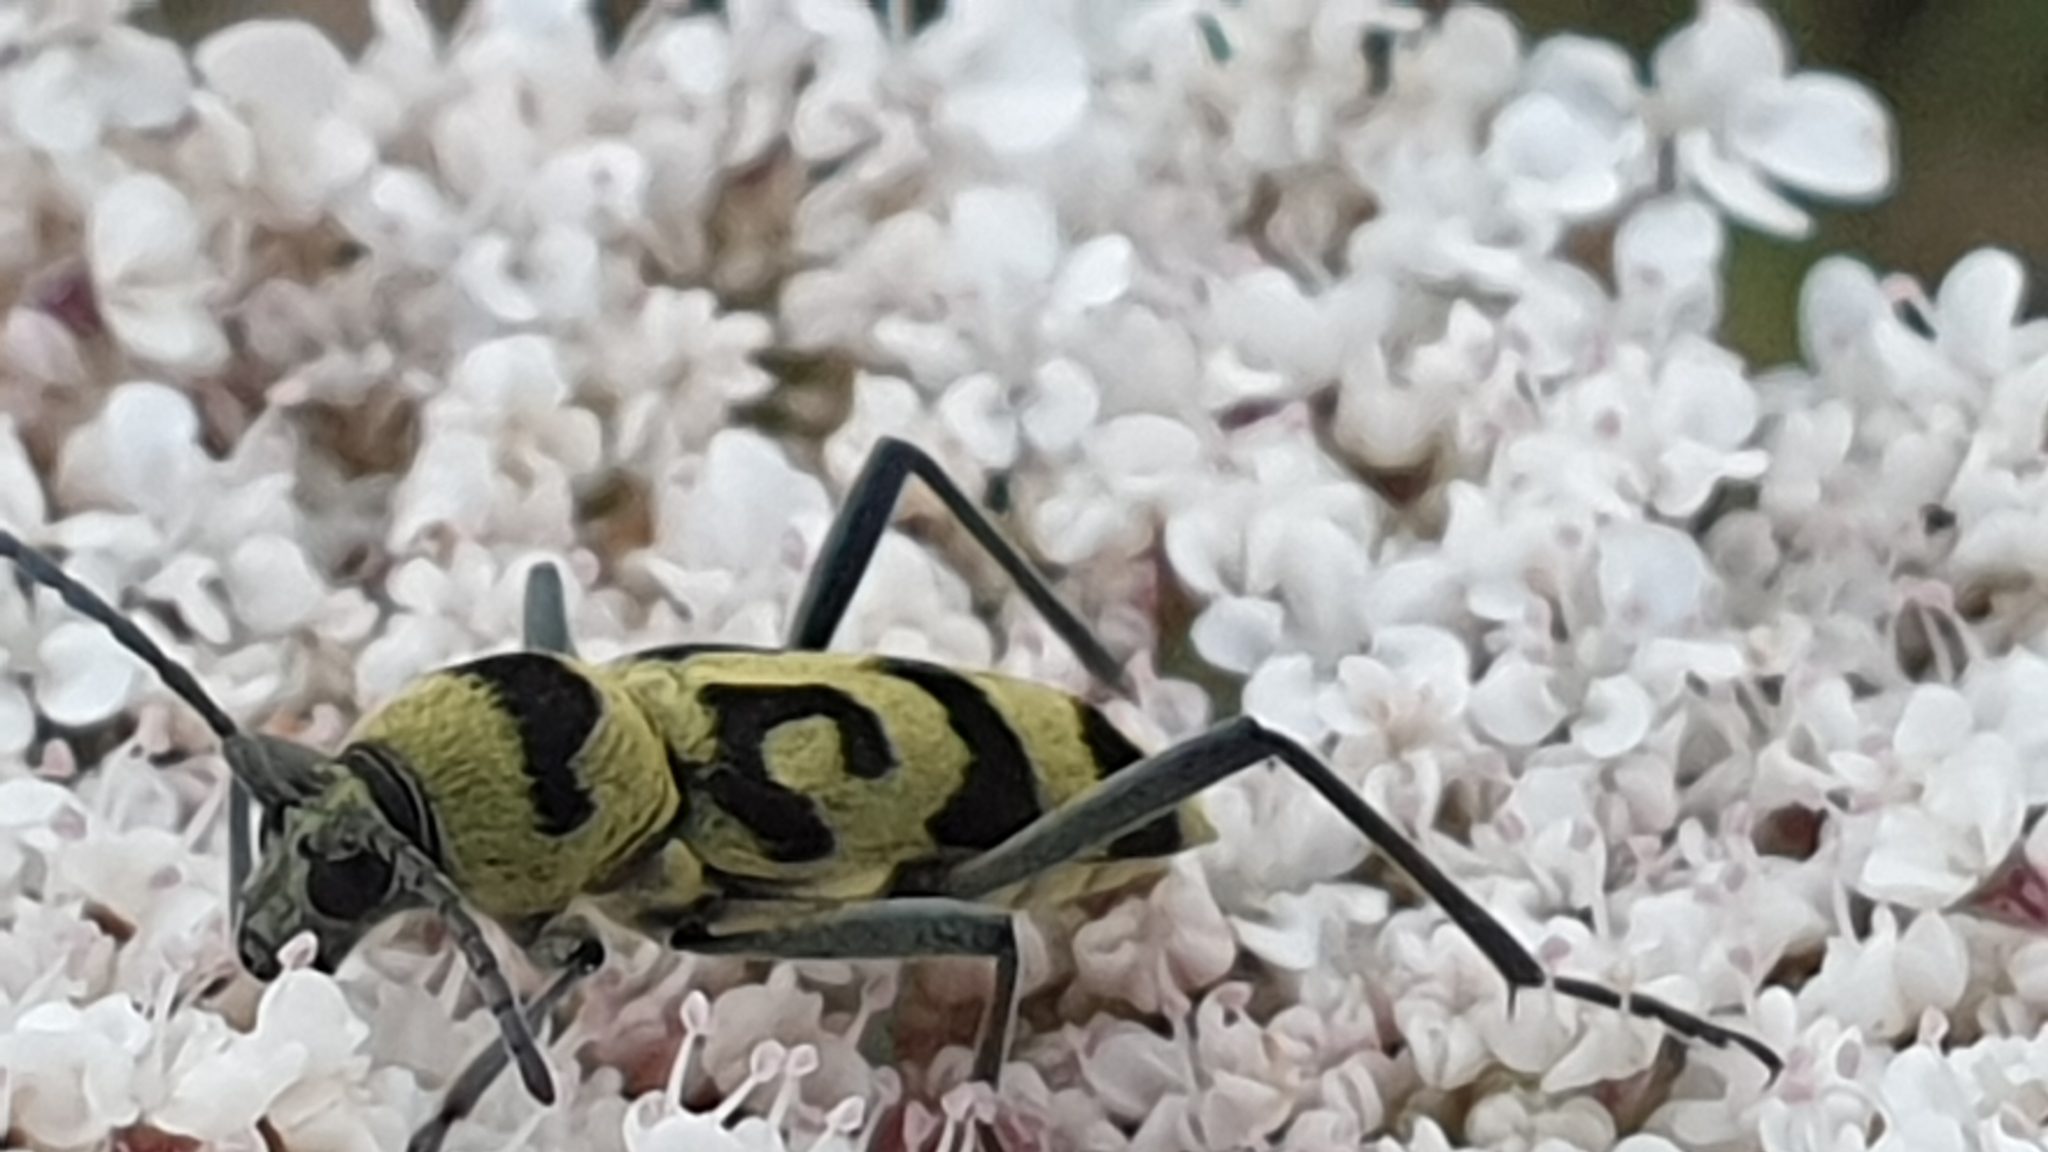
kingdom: Animalia
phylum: Arthropoda
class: Insecta
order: Coleoptera
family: Cerambycidae
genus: Chlorophorus
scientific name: Chlorophorus varius
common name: Grape wood borer
